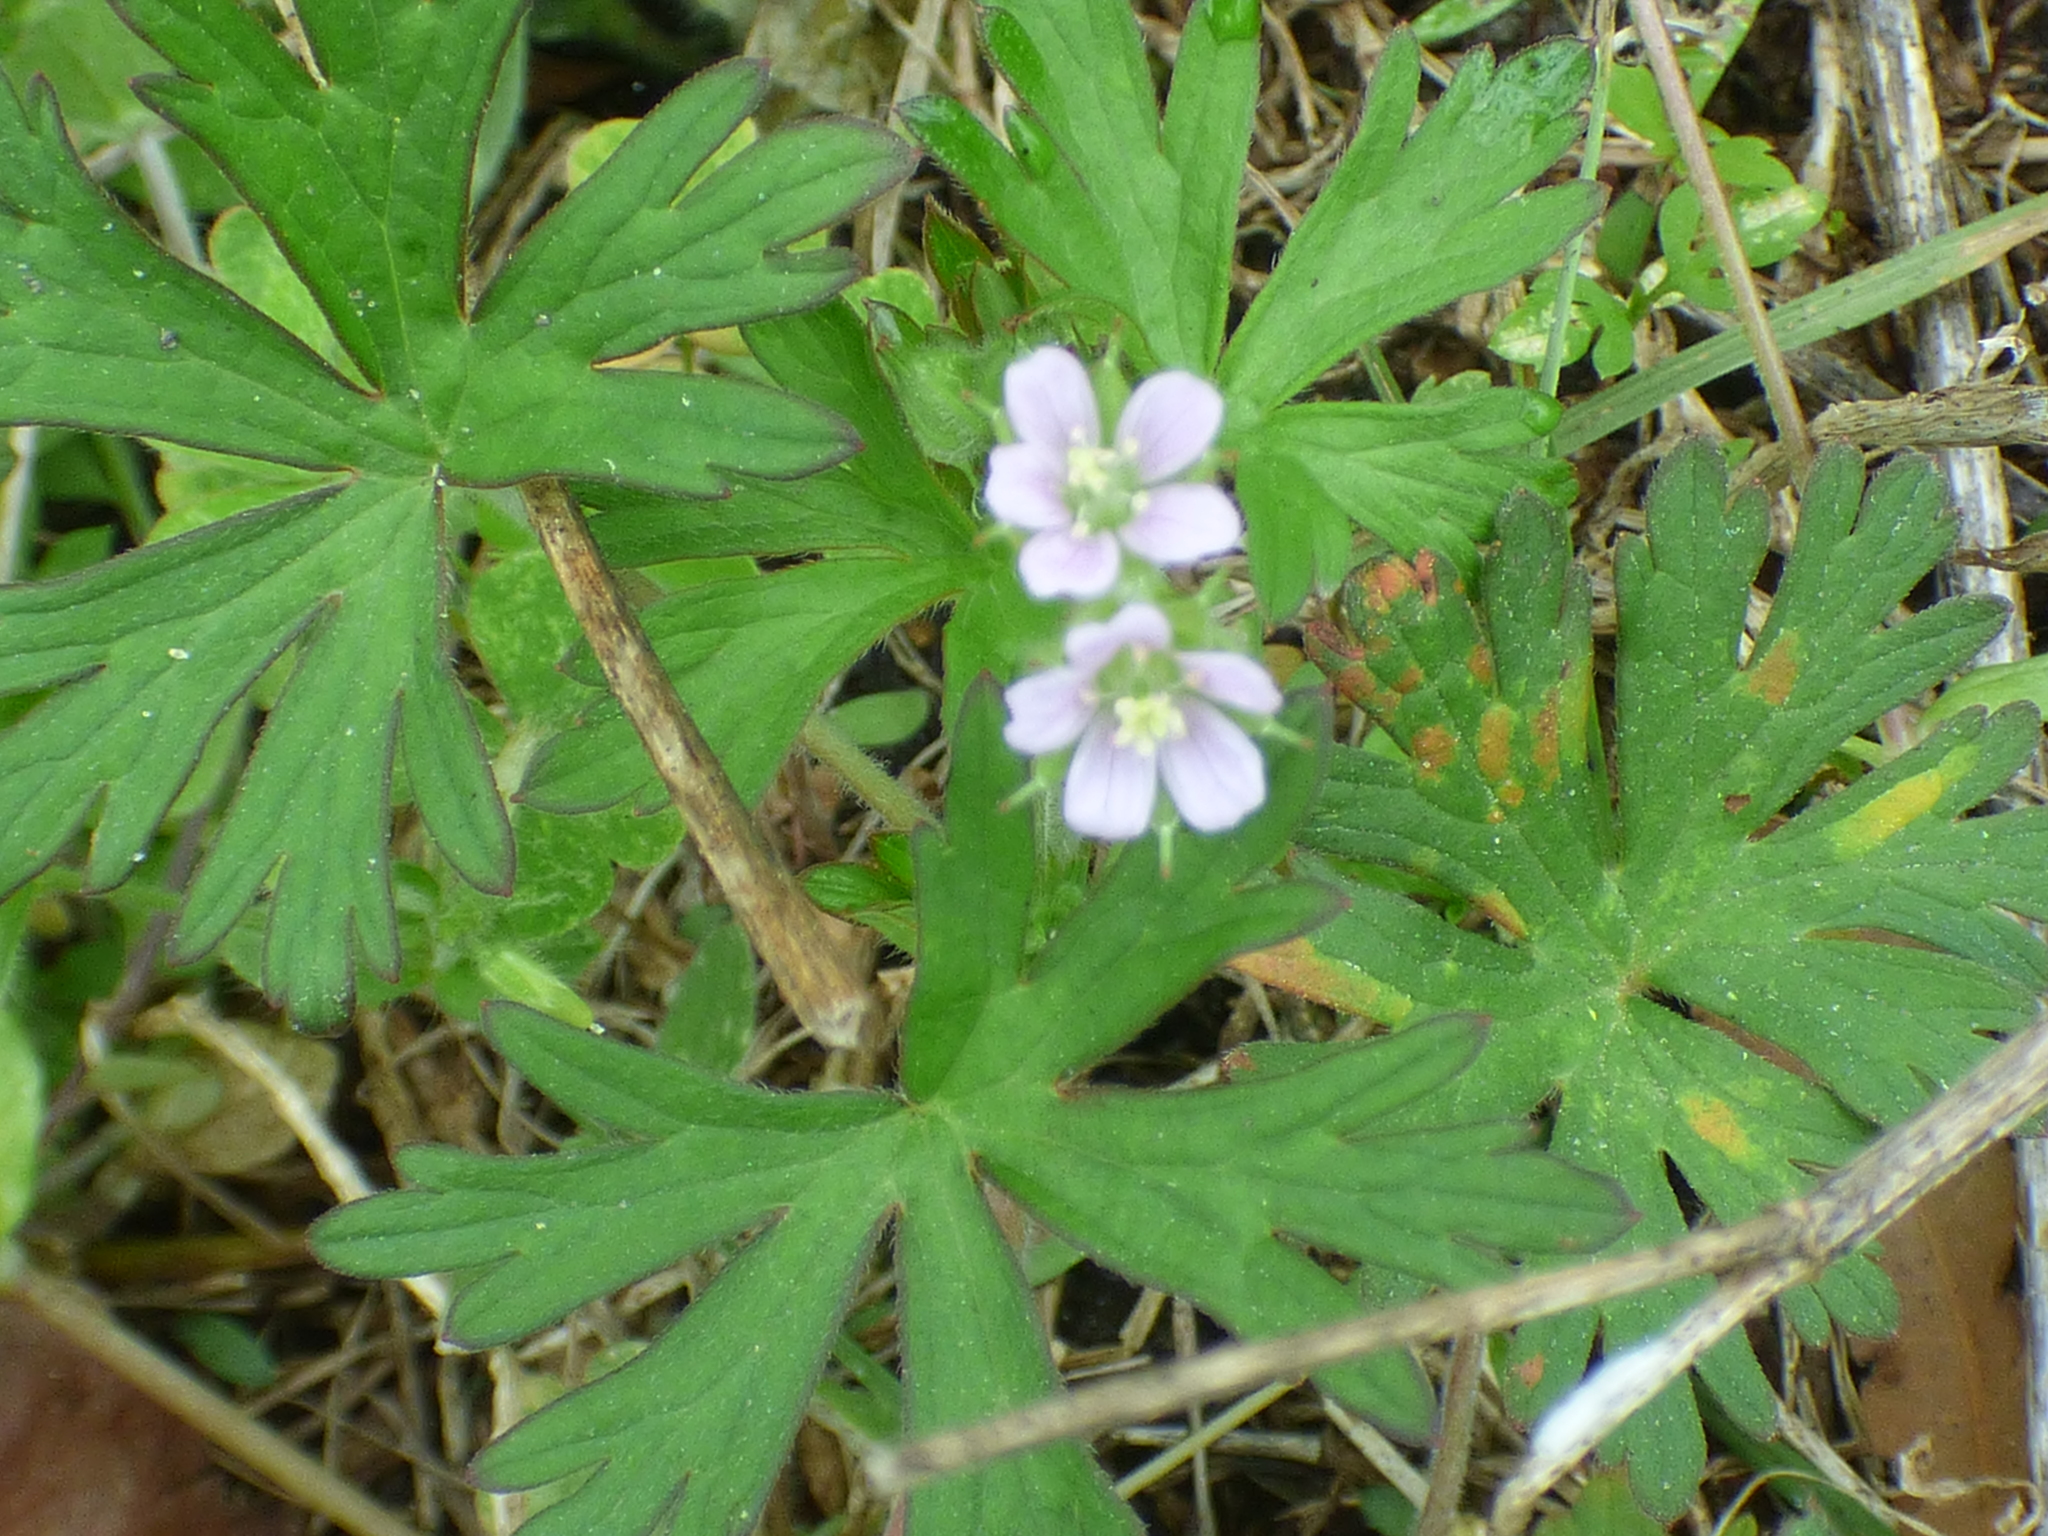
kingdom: Plantae
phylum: Tracheophyta
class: Magnoliopsida
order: Geraniales
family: Geraniaceae
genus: Geranium
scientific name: Geranium carolinianum
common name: Carolina crane's-bill
